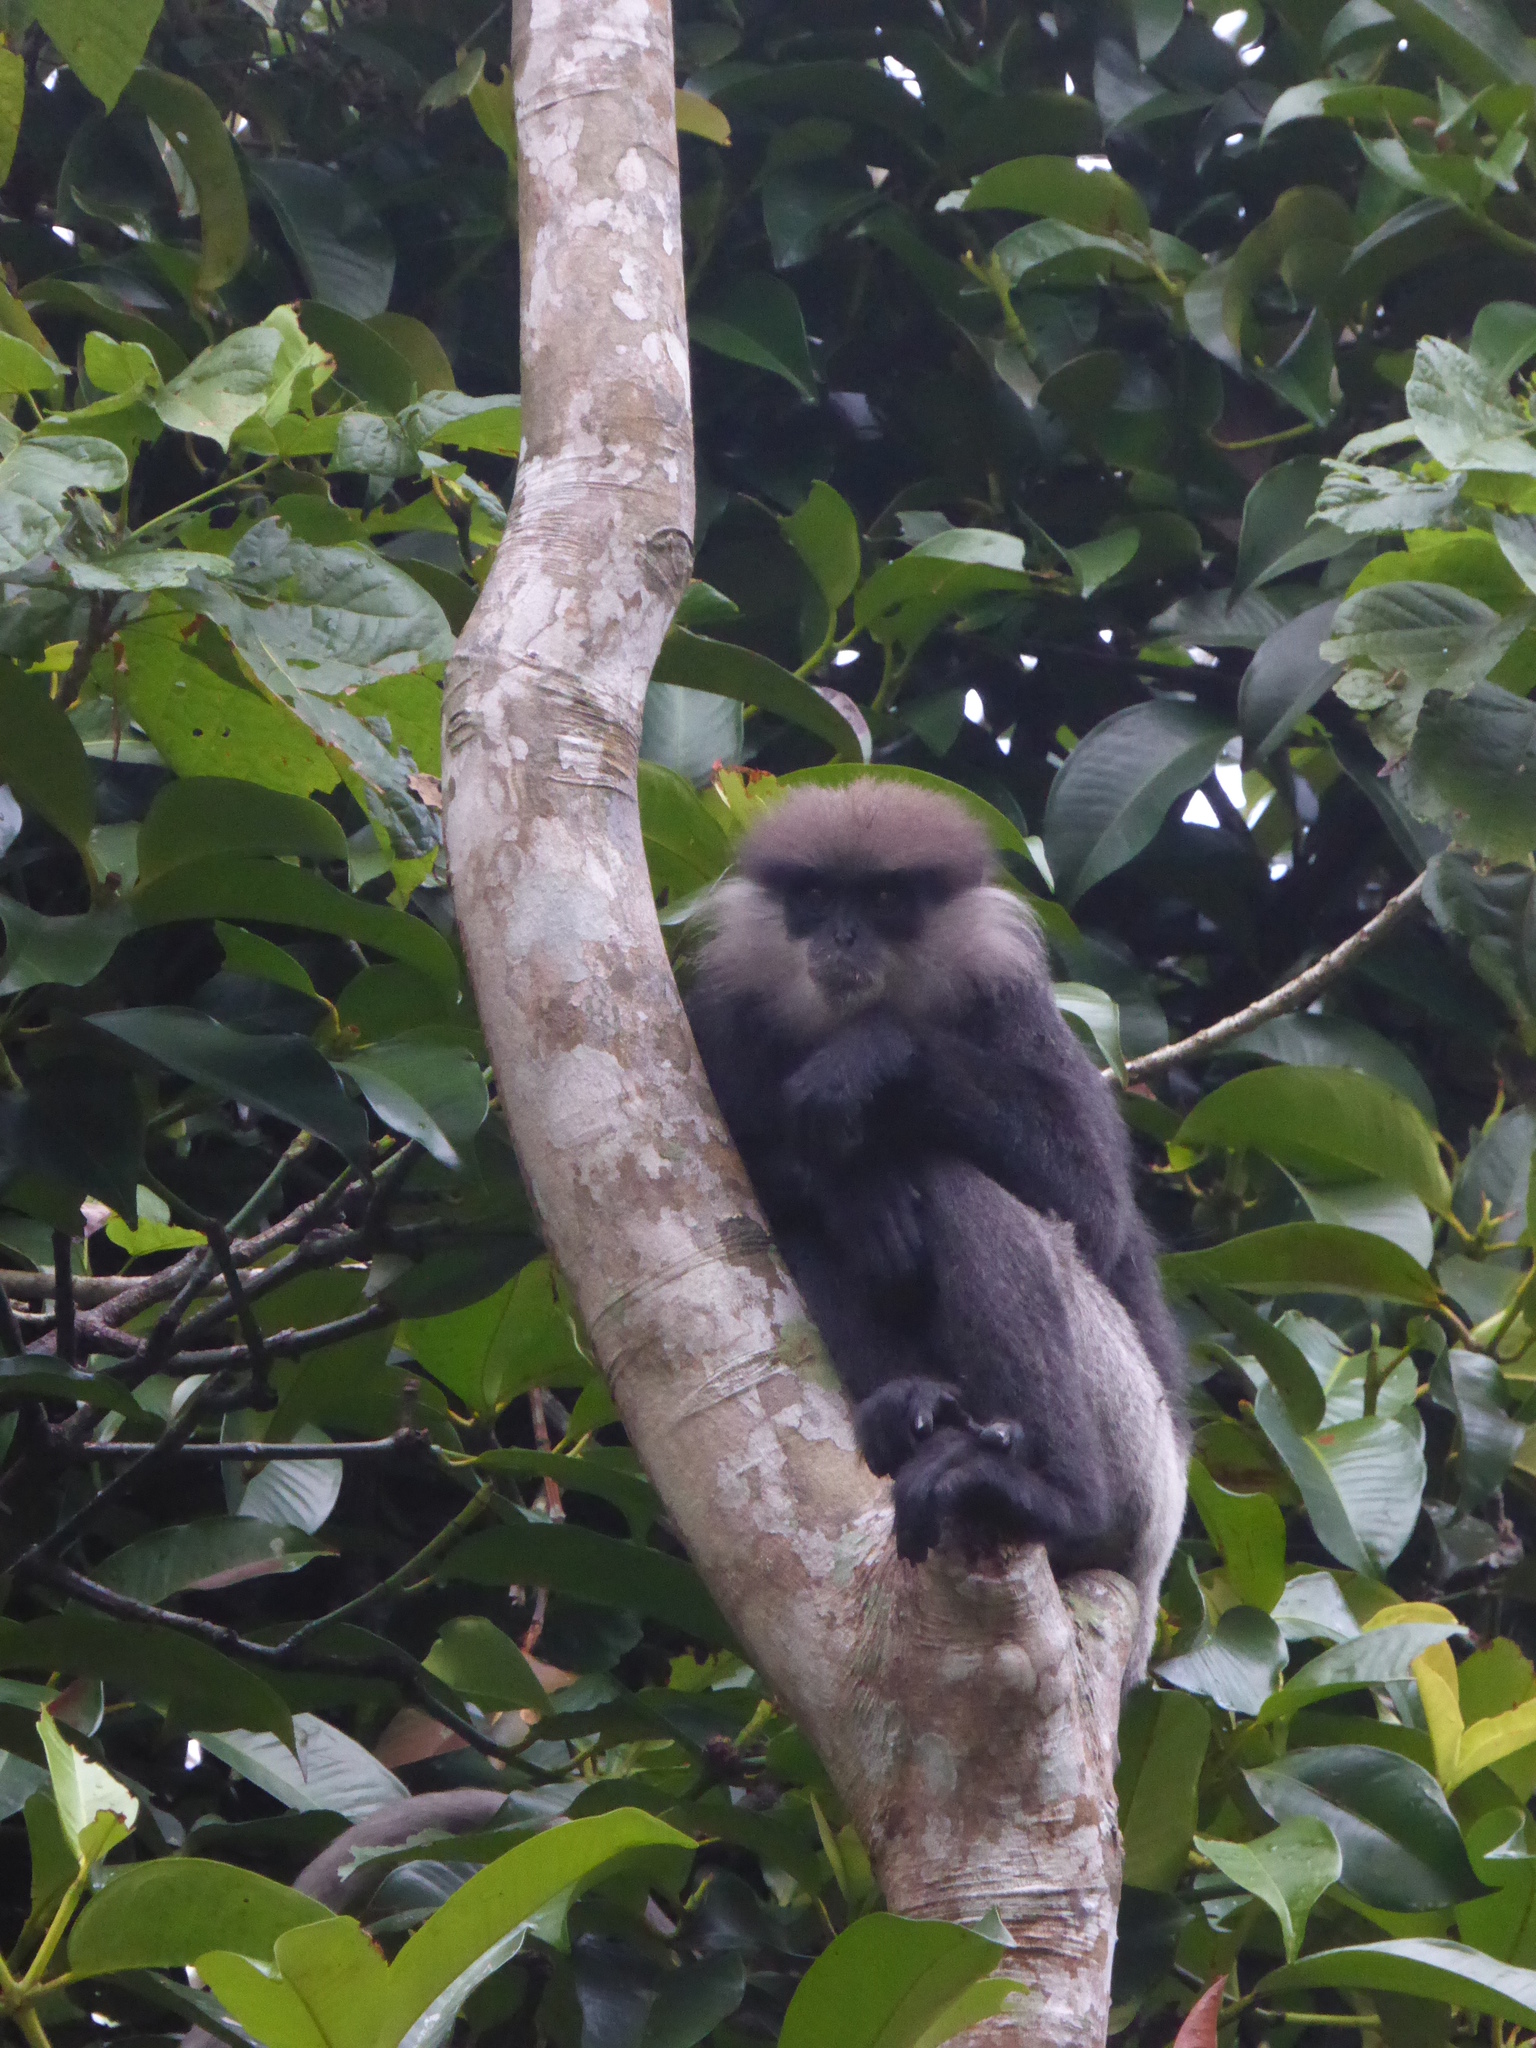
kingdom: Animalia
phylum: Chordata
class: Mammalia
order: Primates
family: Cercopithecidae
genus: Semnopithecus
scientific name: Semnopithecus vetulus
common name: Purple-faced langur
